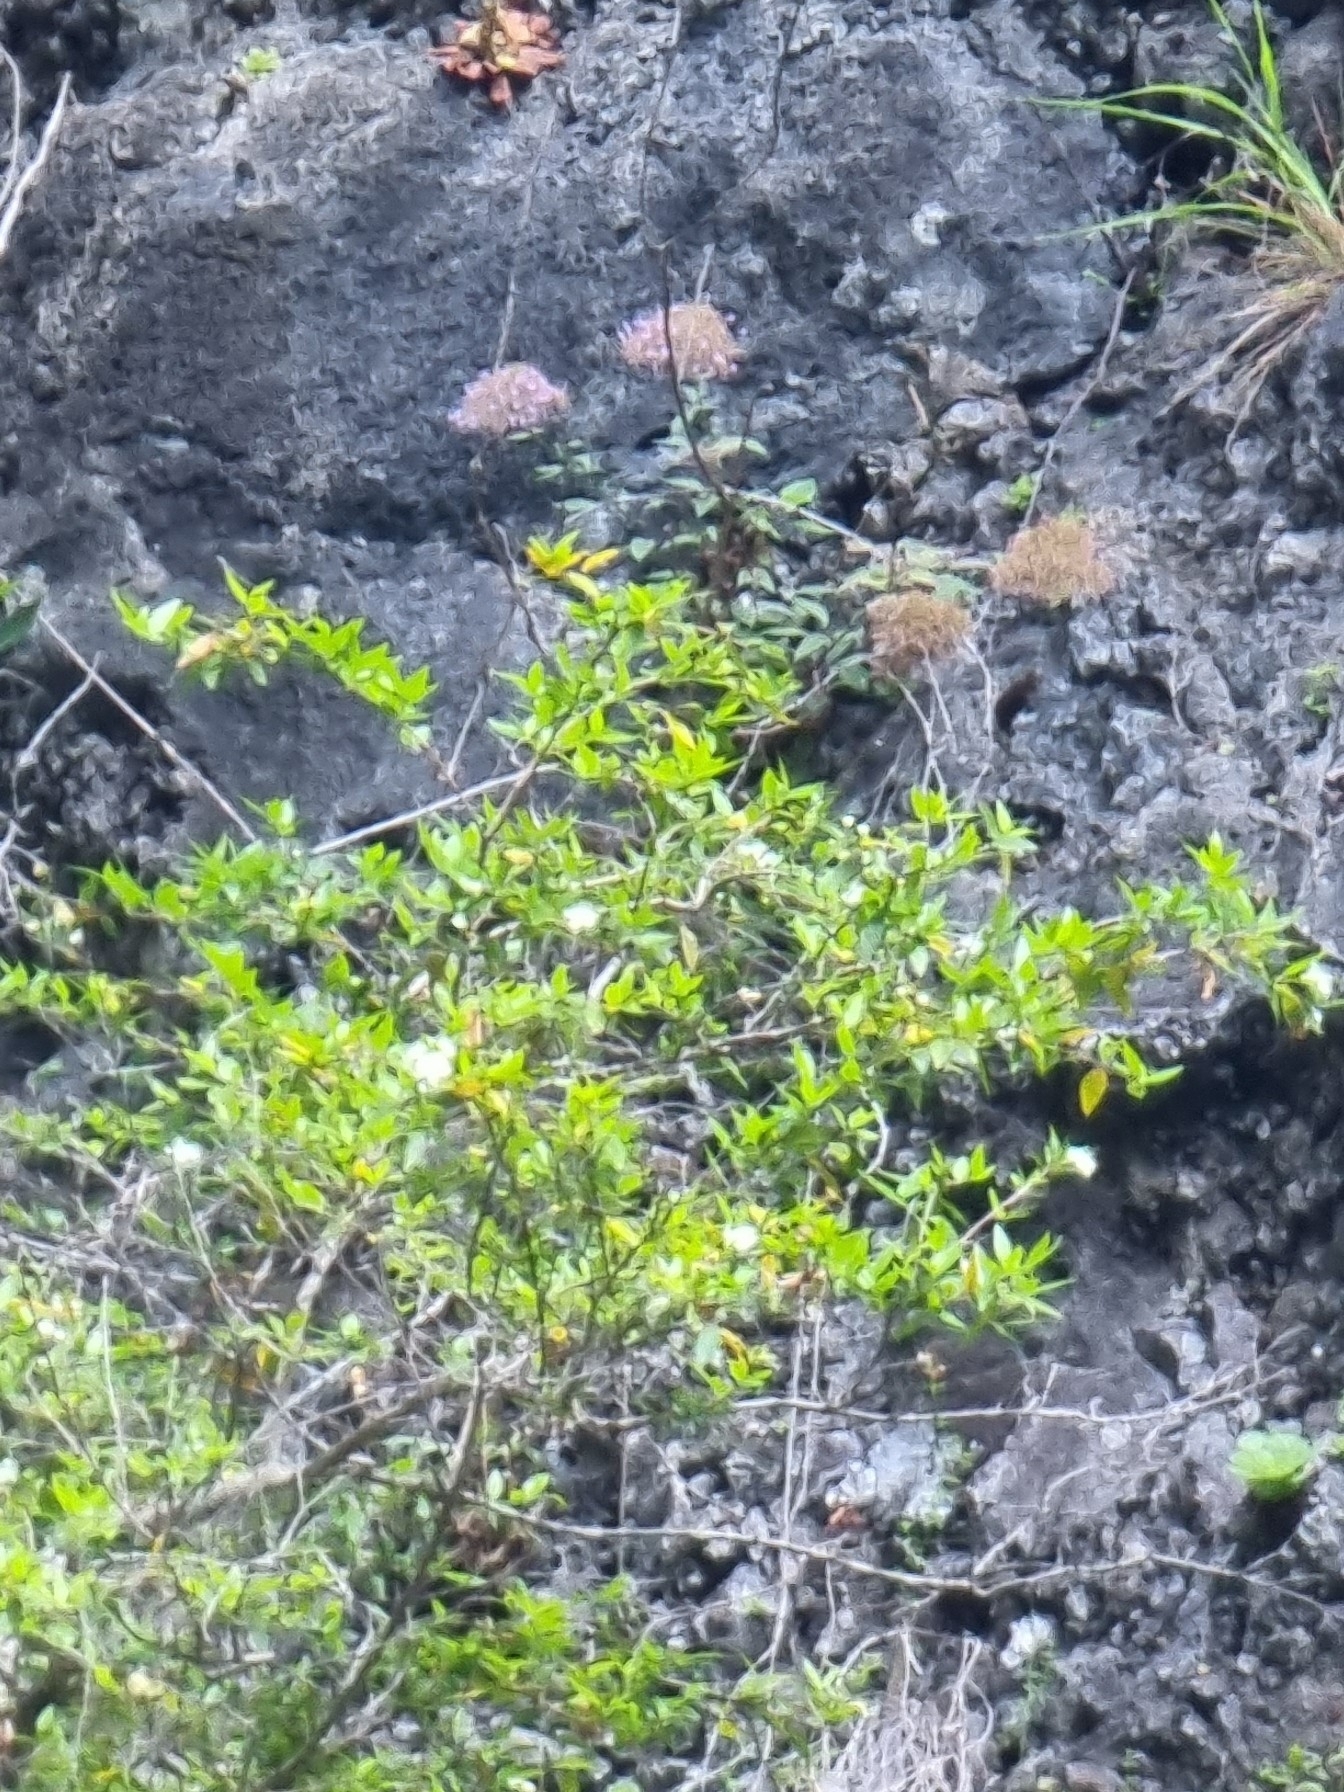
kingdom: Plantae
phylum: Tracheophyta
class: Magnoliopsida
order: Myrtales
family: Myrtaceae
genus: Myrtus
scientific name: Myrtus communis
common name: Myrtle
